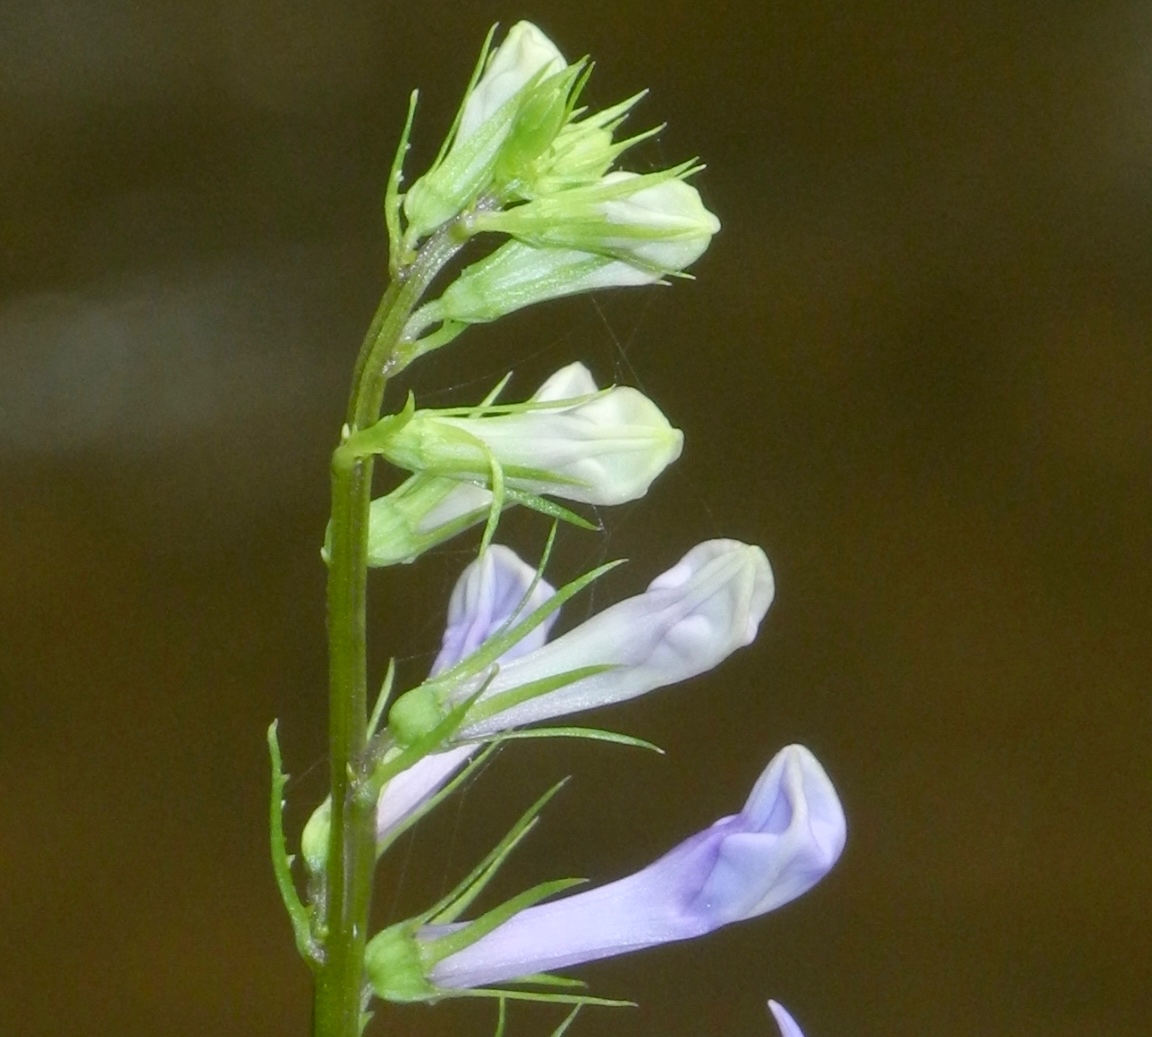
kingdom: Plantae
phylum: Tracheophyta
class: Magnoliopsida
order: Asterales
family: Campanulaceae
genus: Lobelia
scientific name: Lobelia amoena
